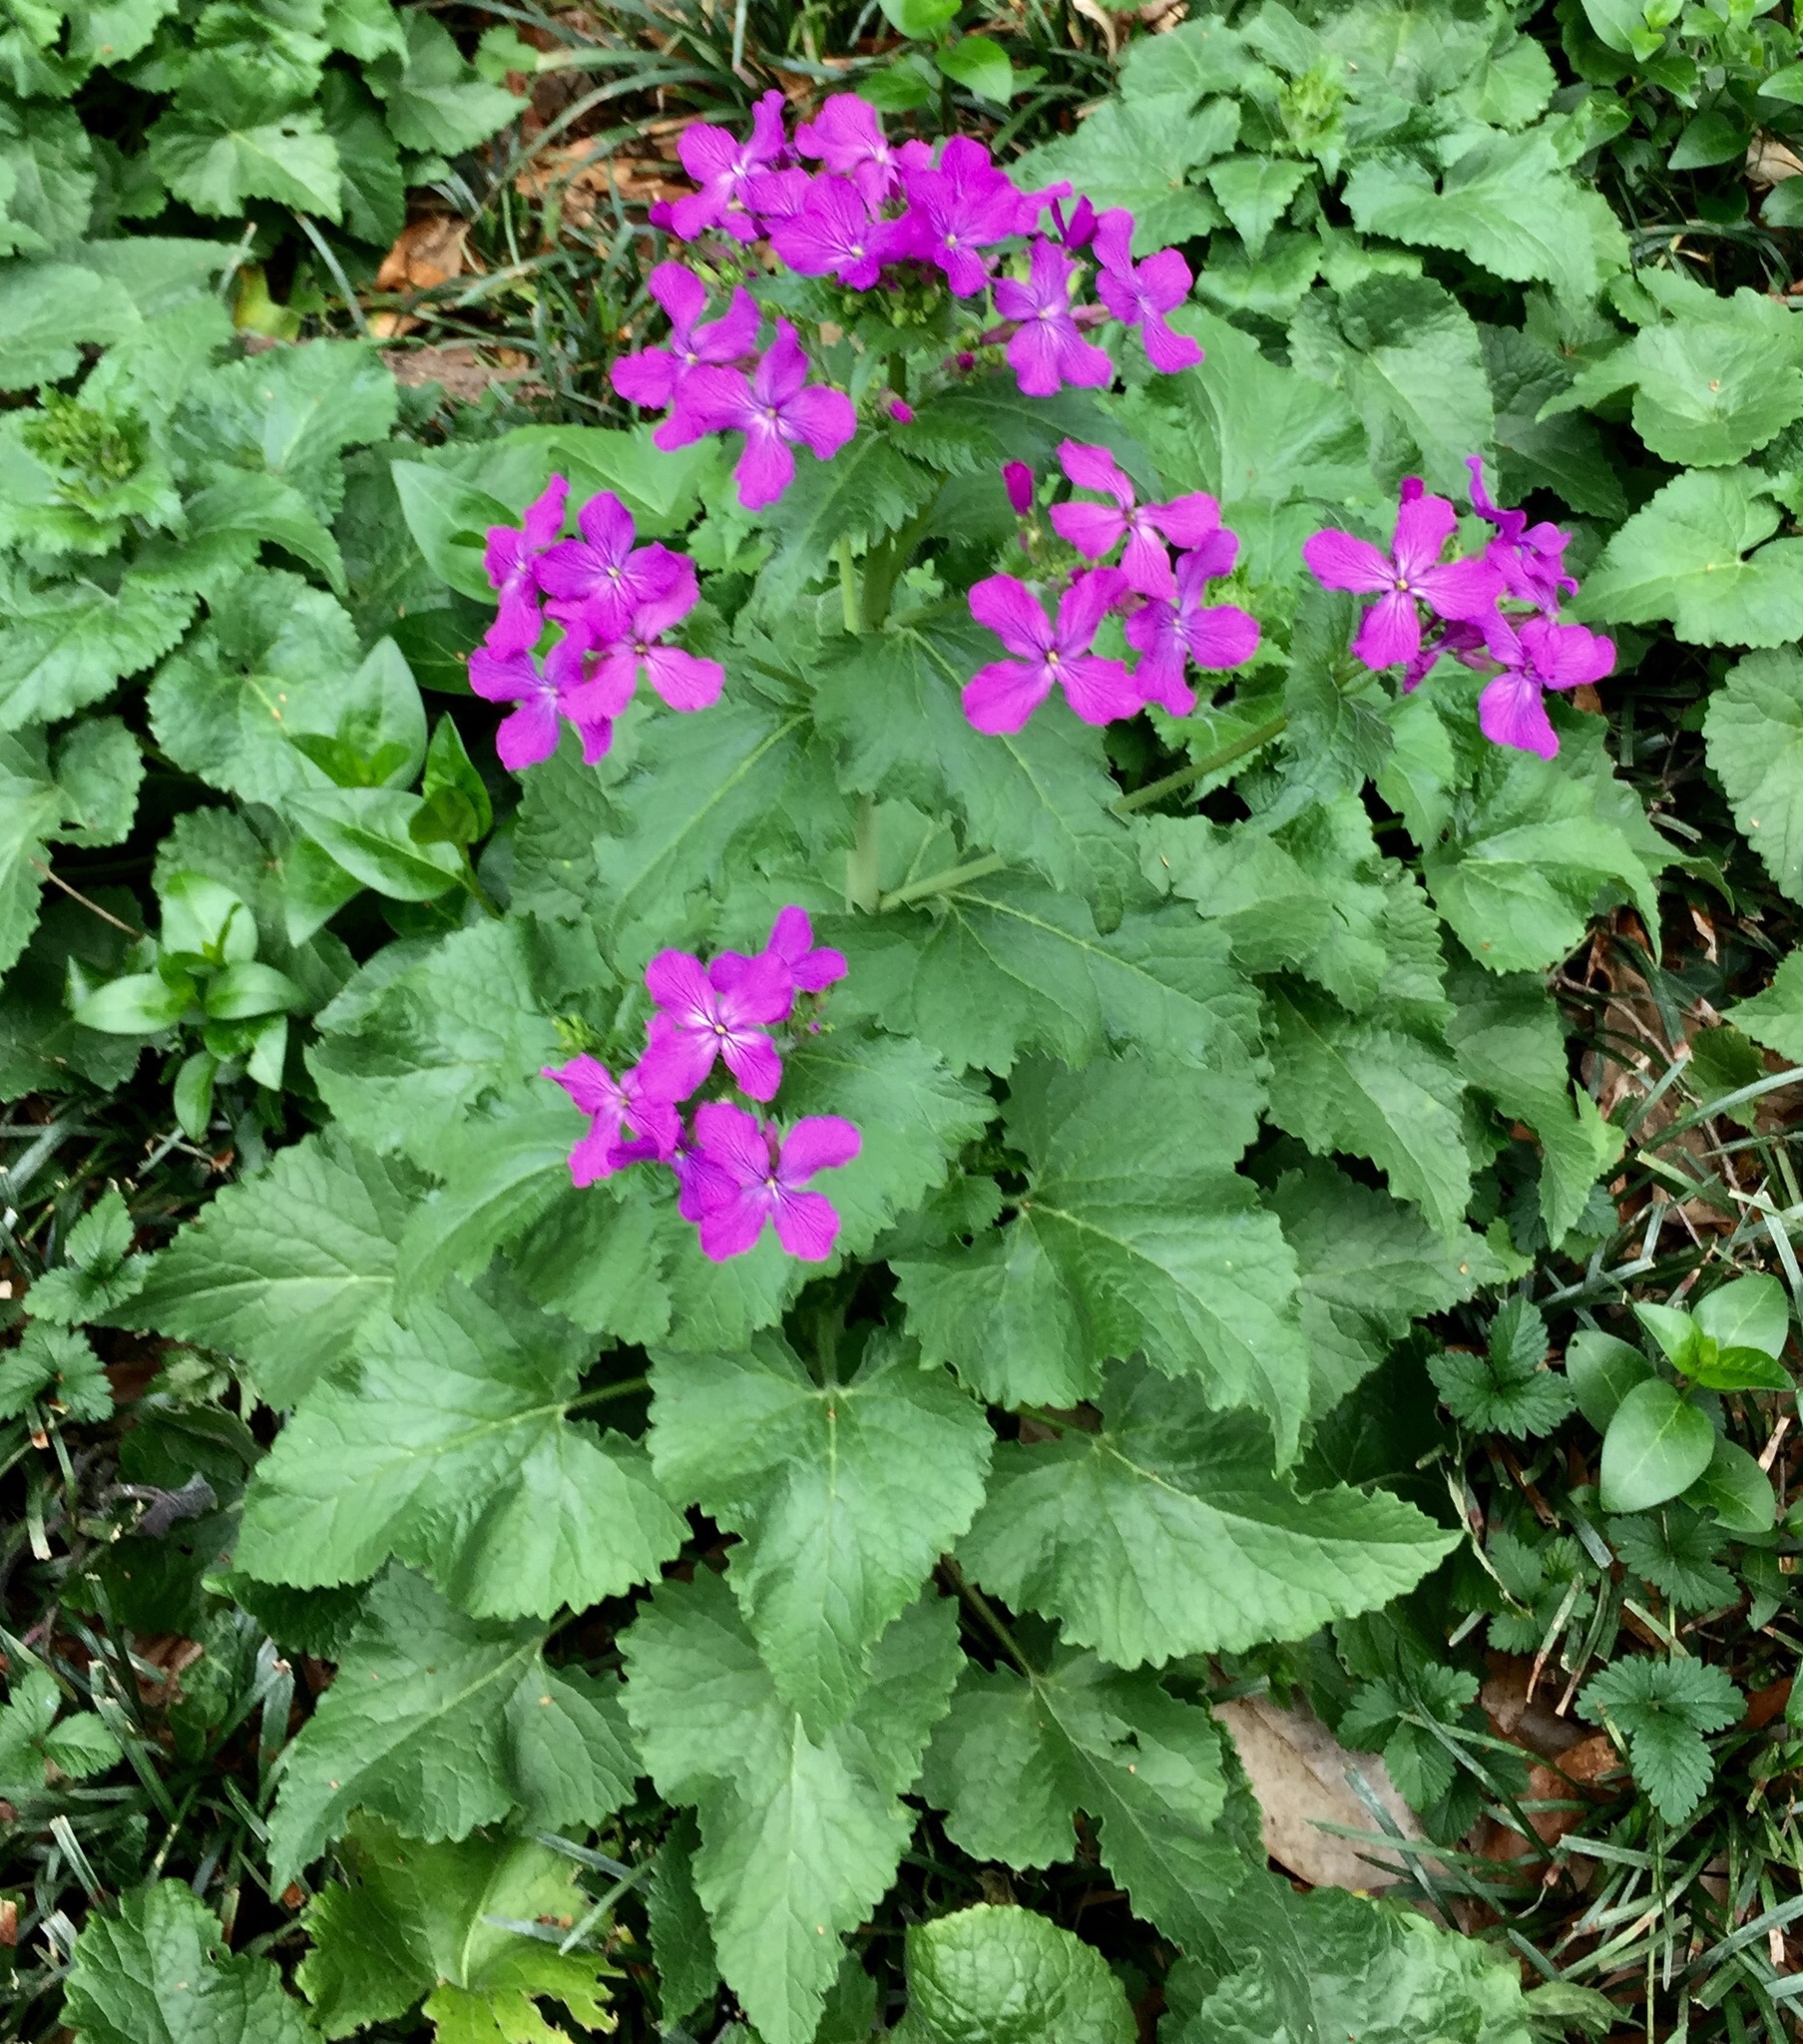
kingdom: Plantae
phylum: Tracheophyta
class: Magnoliopsida
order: Brassicales
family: Brassicaceae
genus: Lunaria
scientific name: Lunaria annua
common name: Honesty
